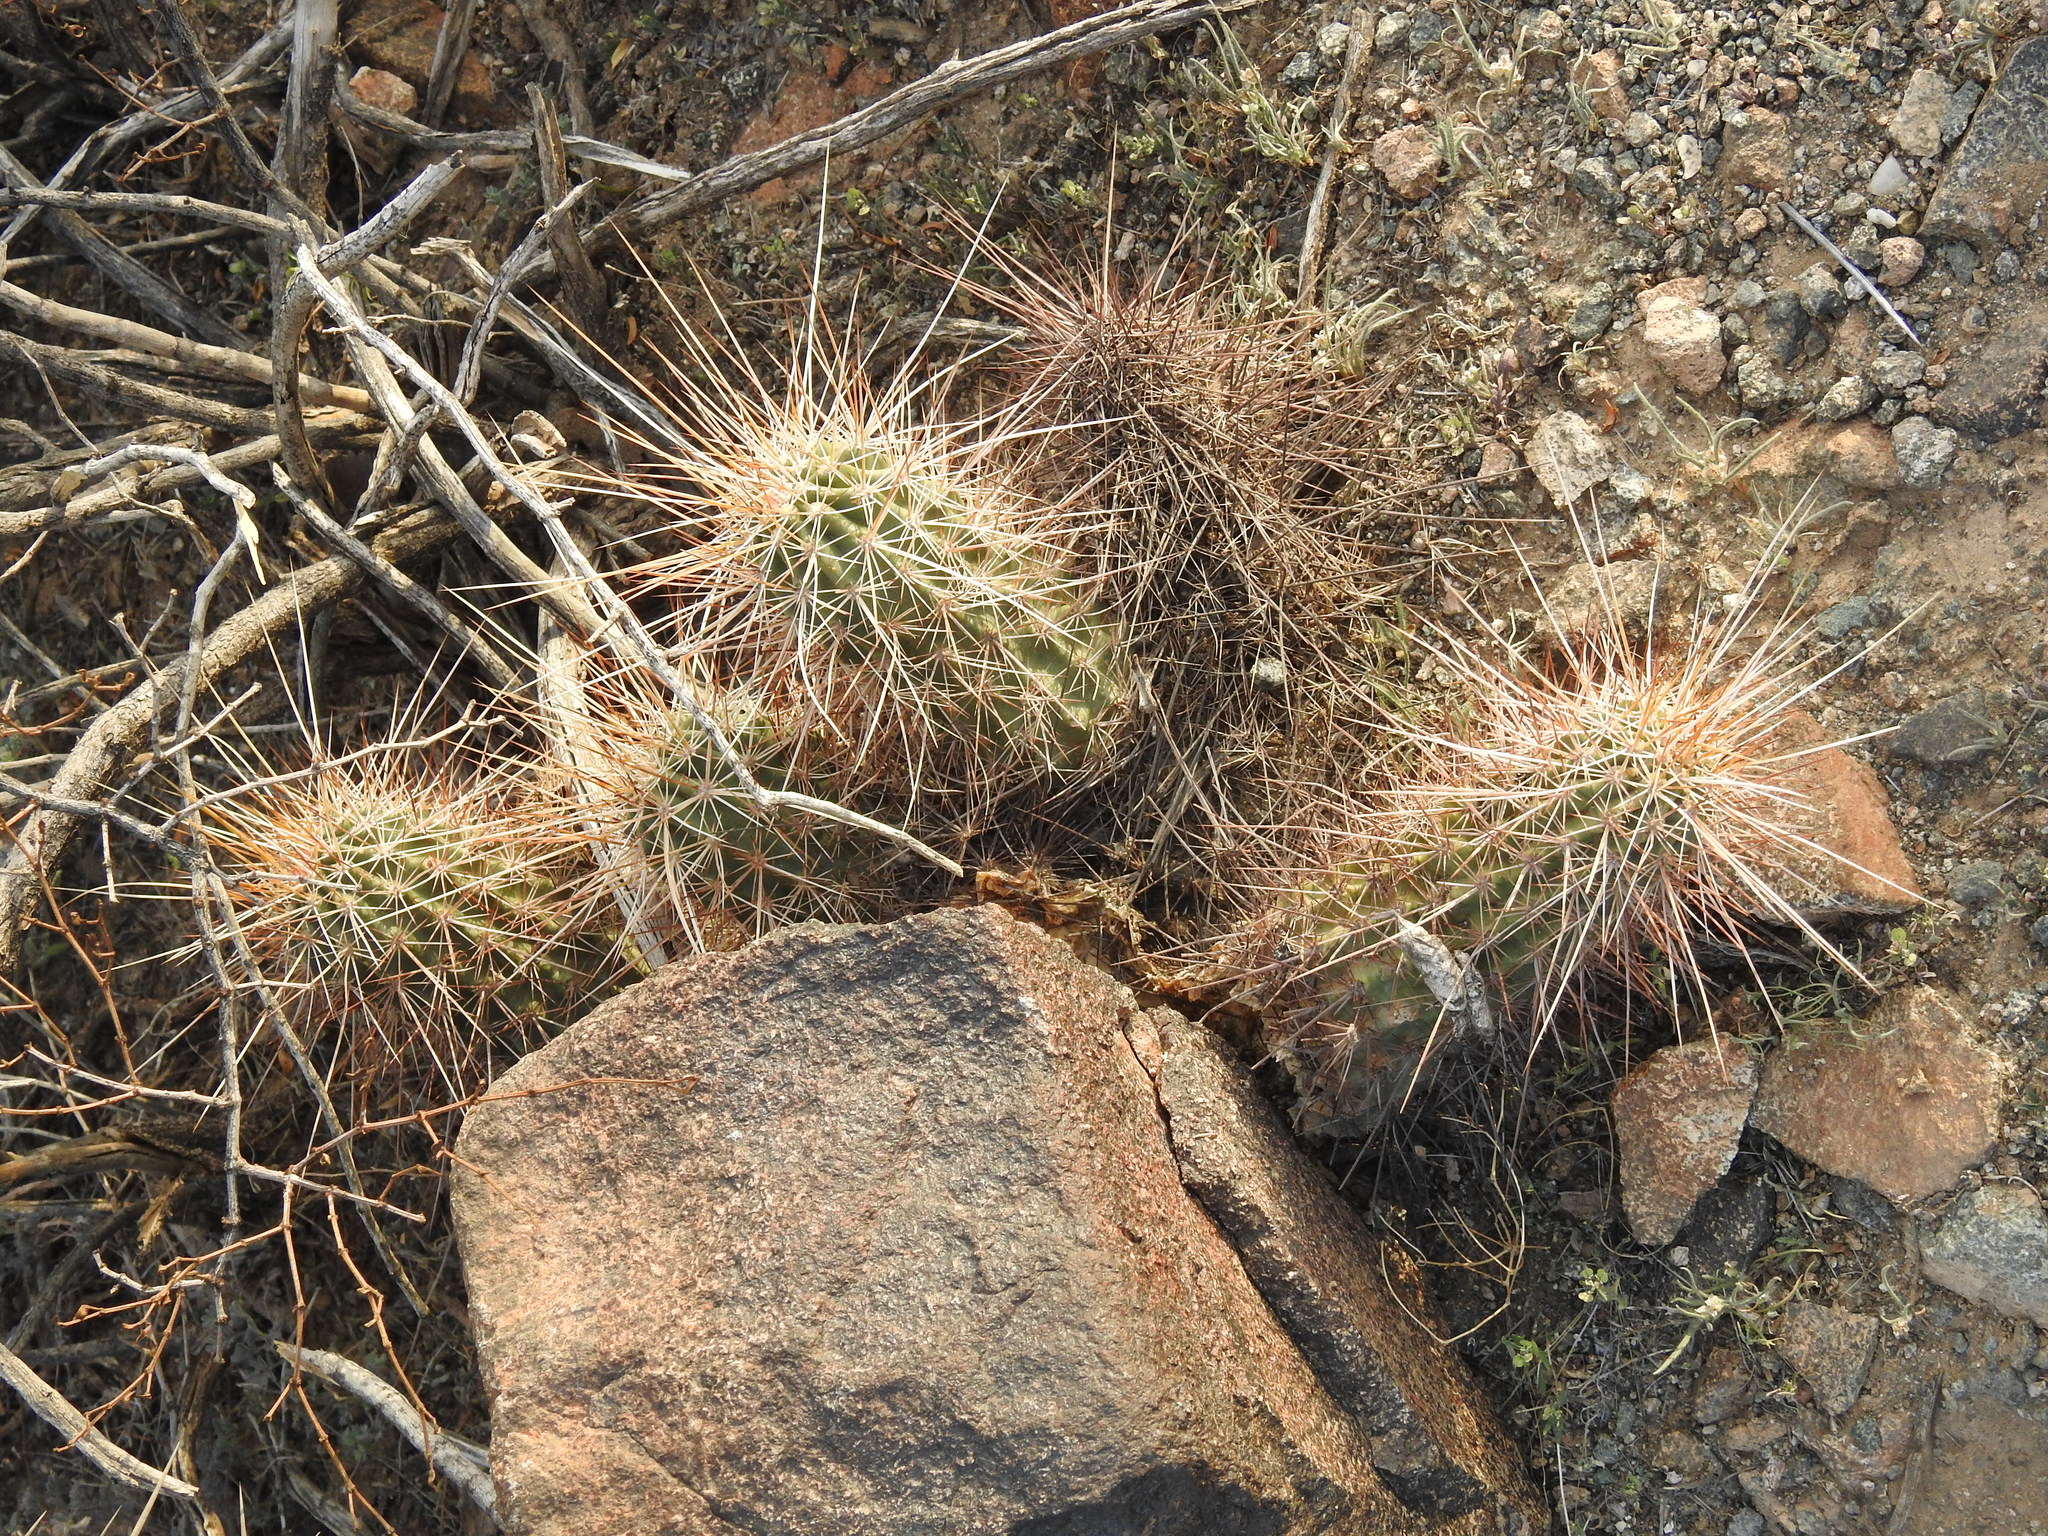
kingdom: Plantae
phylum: Tracheophyta
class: Magnoliopsida
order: Caryophyllales
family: Cactaceae
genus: Echinocereus
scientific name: Echinocereus engelmannii
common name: Engelmann's hedgehog cactus
